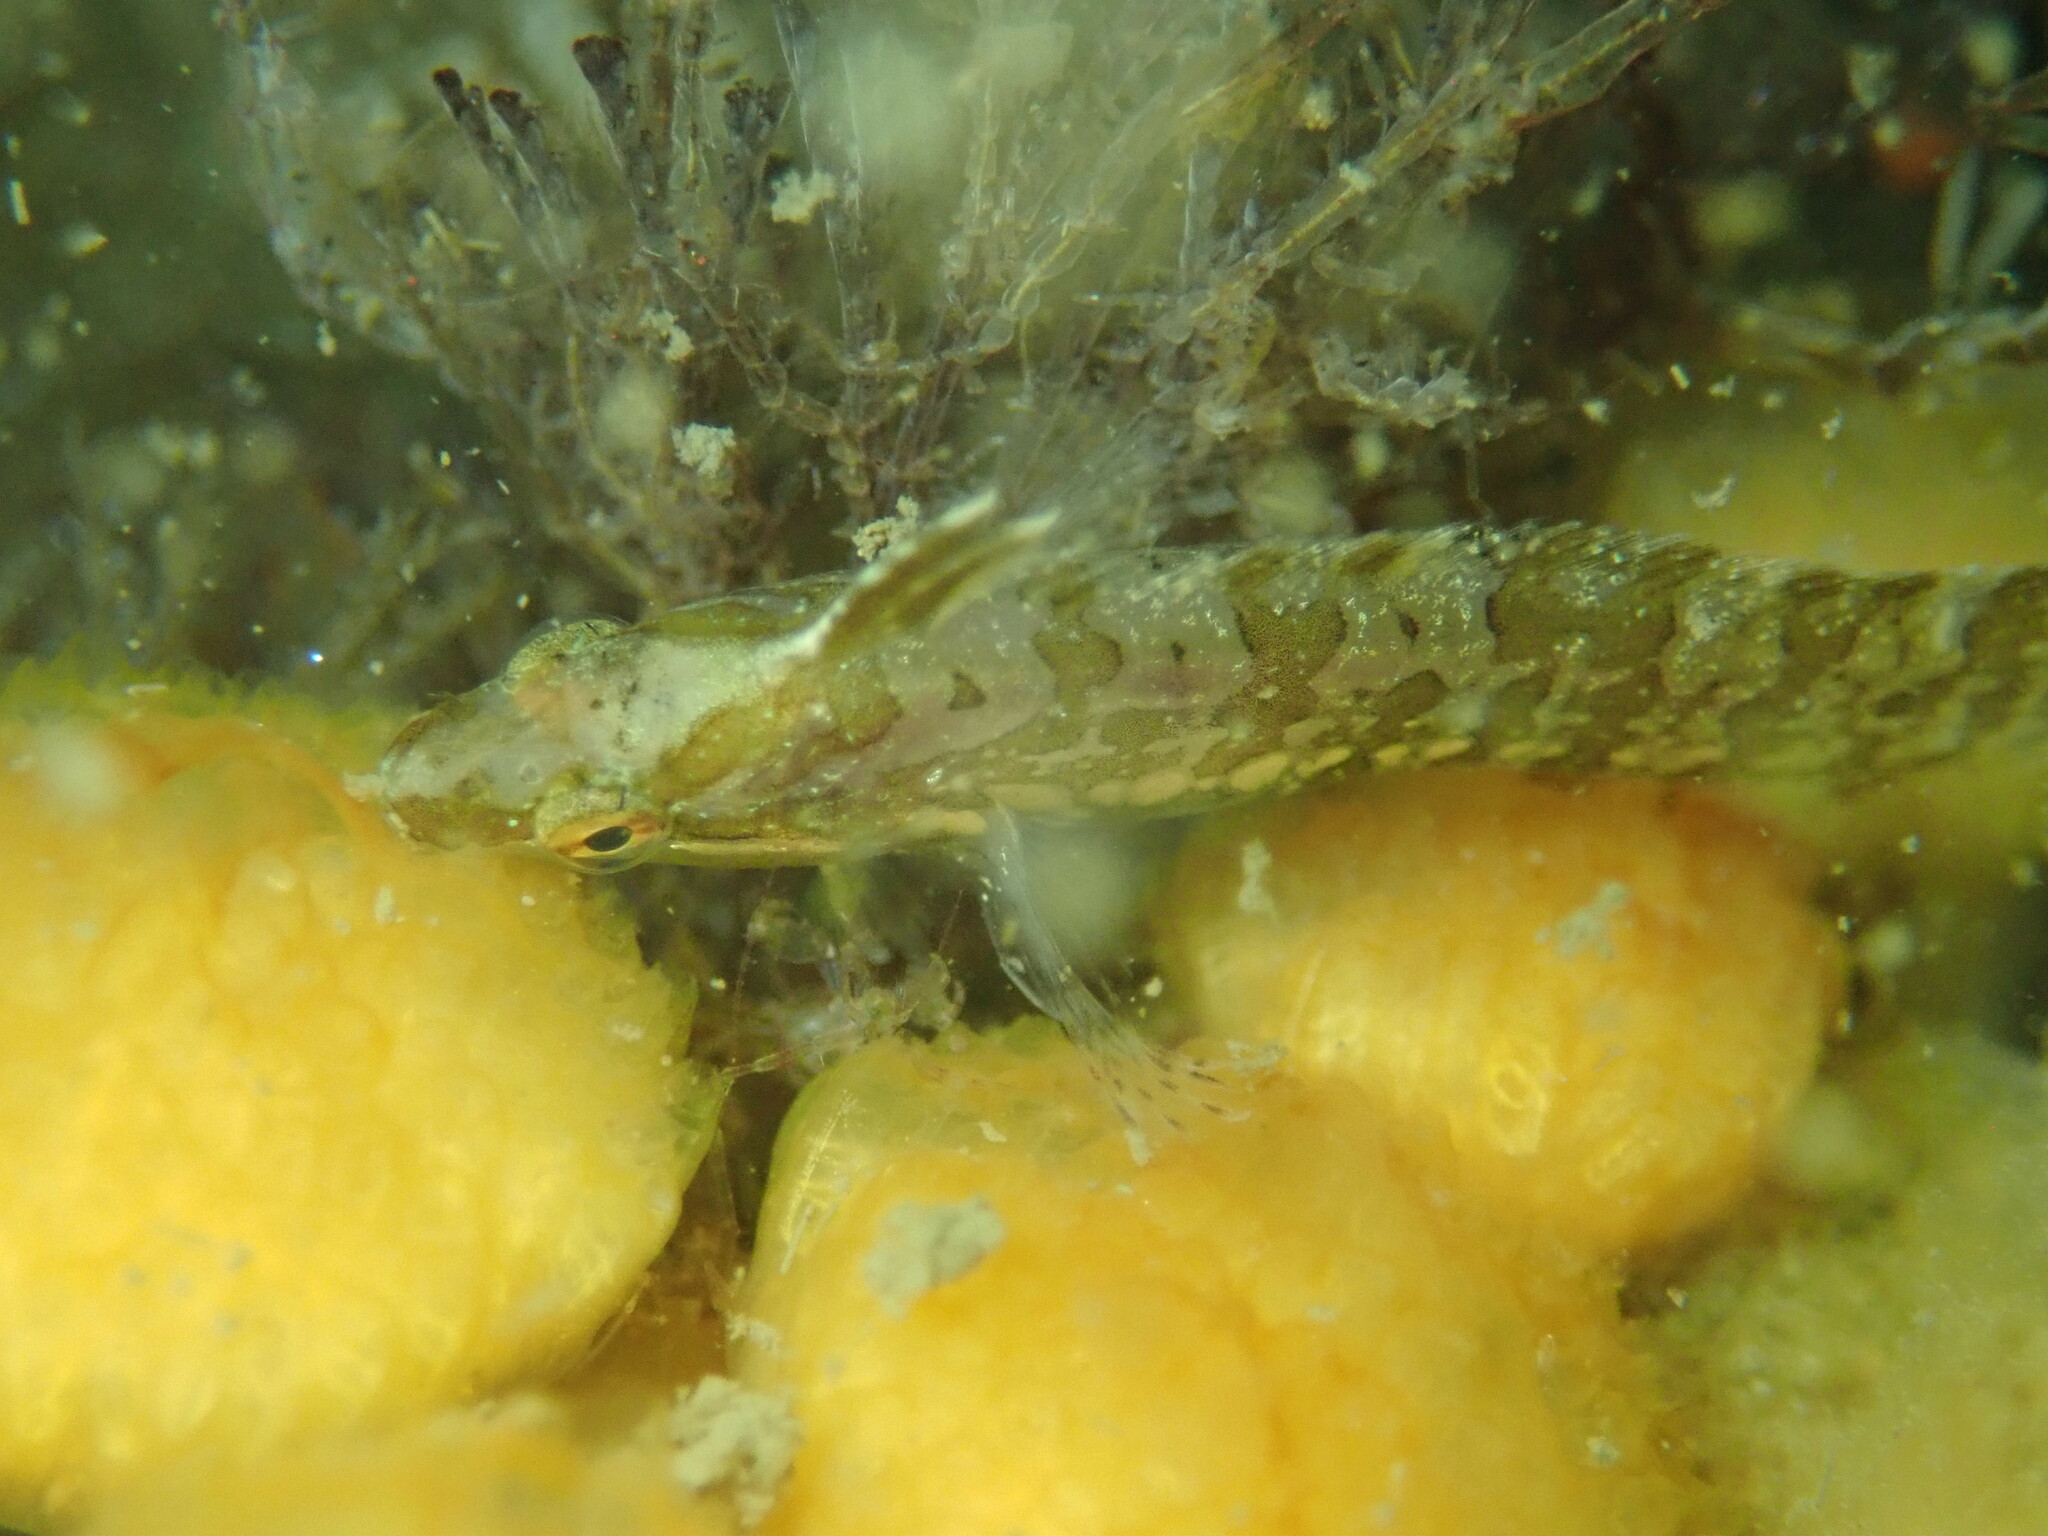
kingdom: Animalia
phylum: Chordata
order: Perciformes
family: Clinidae
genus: Gibbonsia
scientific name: Gibbonsia metzi
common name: Striped kelpfish
